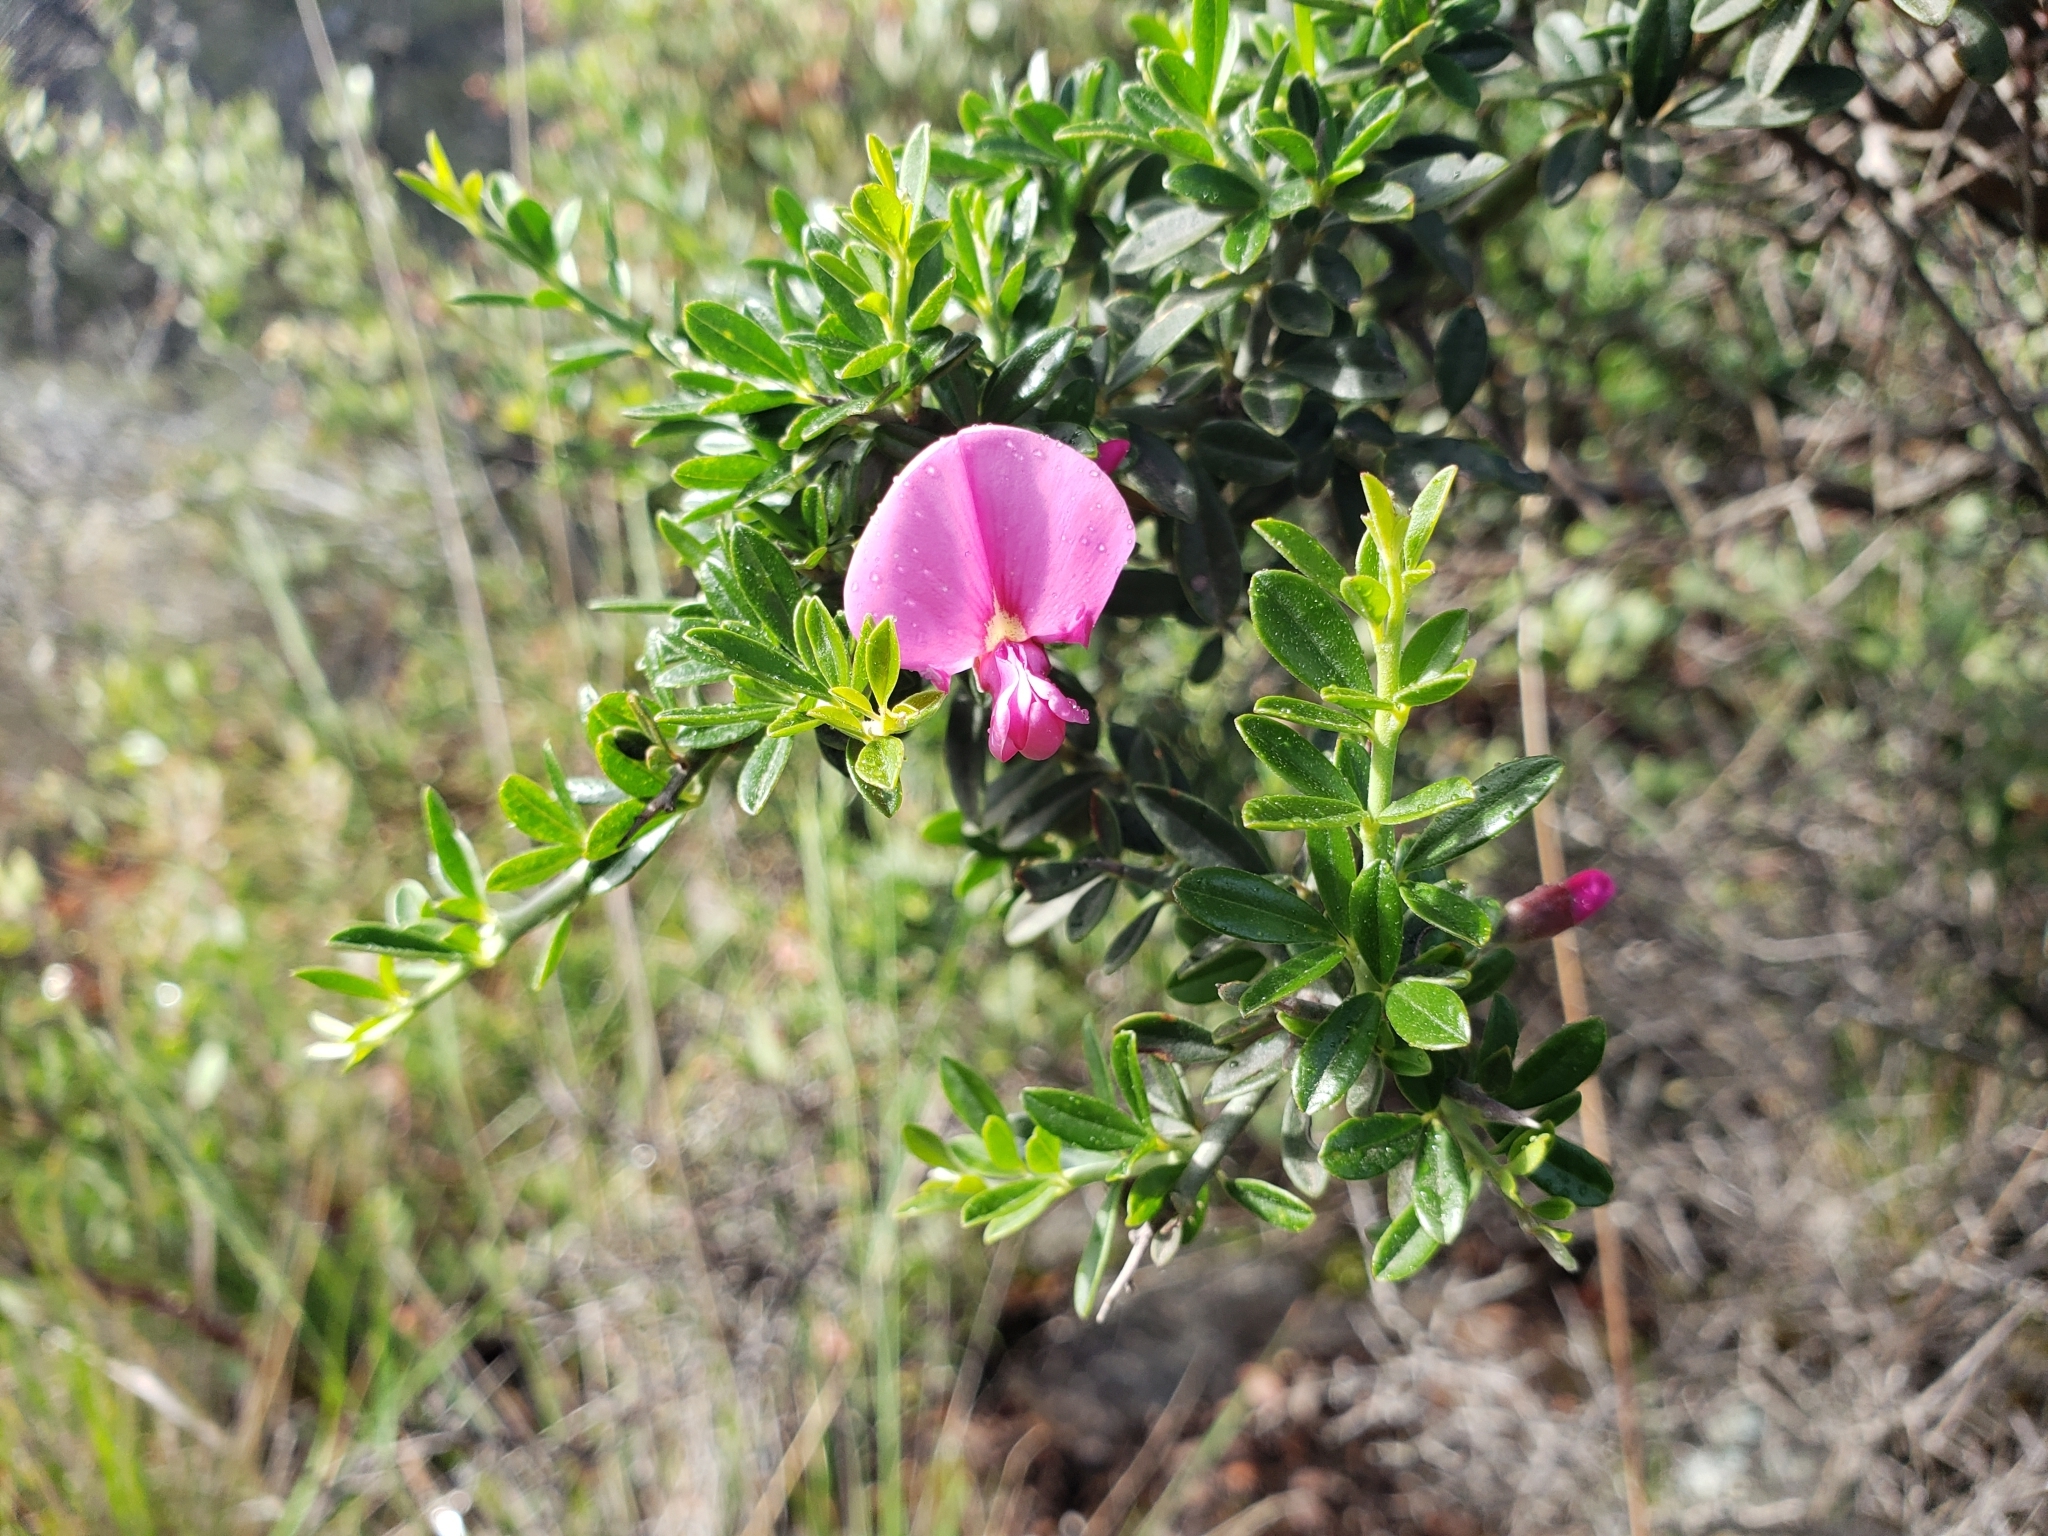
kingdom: Plantae
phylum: Tracheophyta
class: Magnoliopsida
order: Fabales
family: Fabaceae
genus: Pickeringia
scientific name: Pickeringia montana
